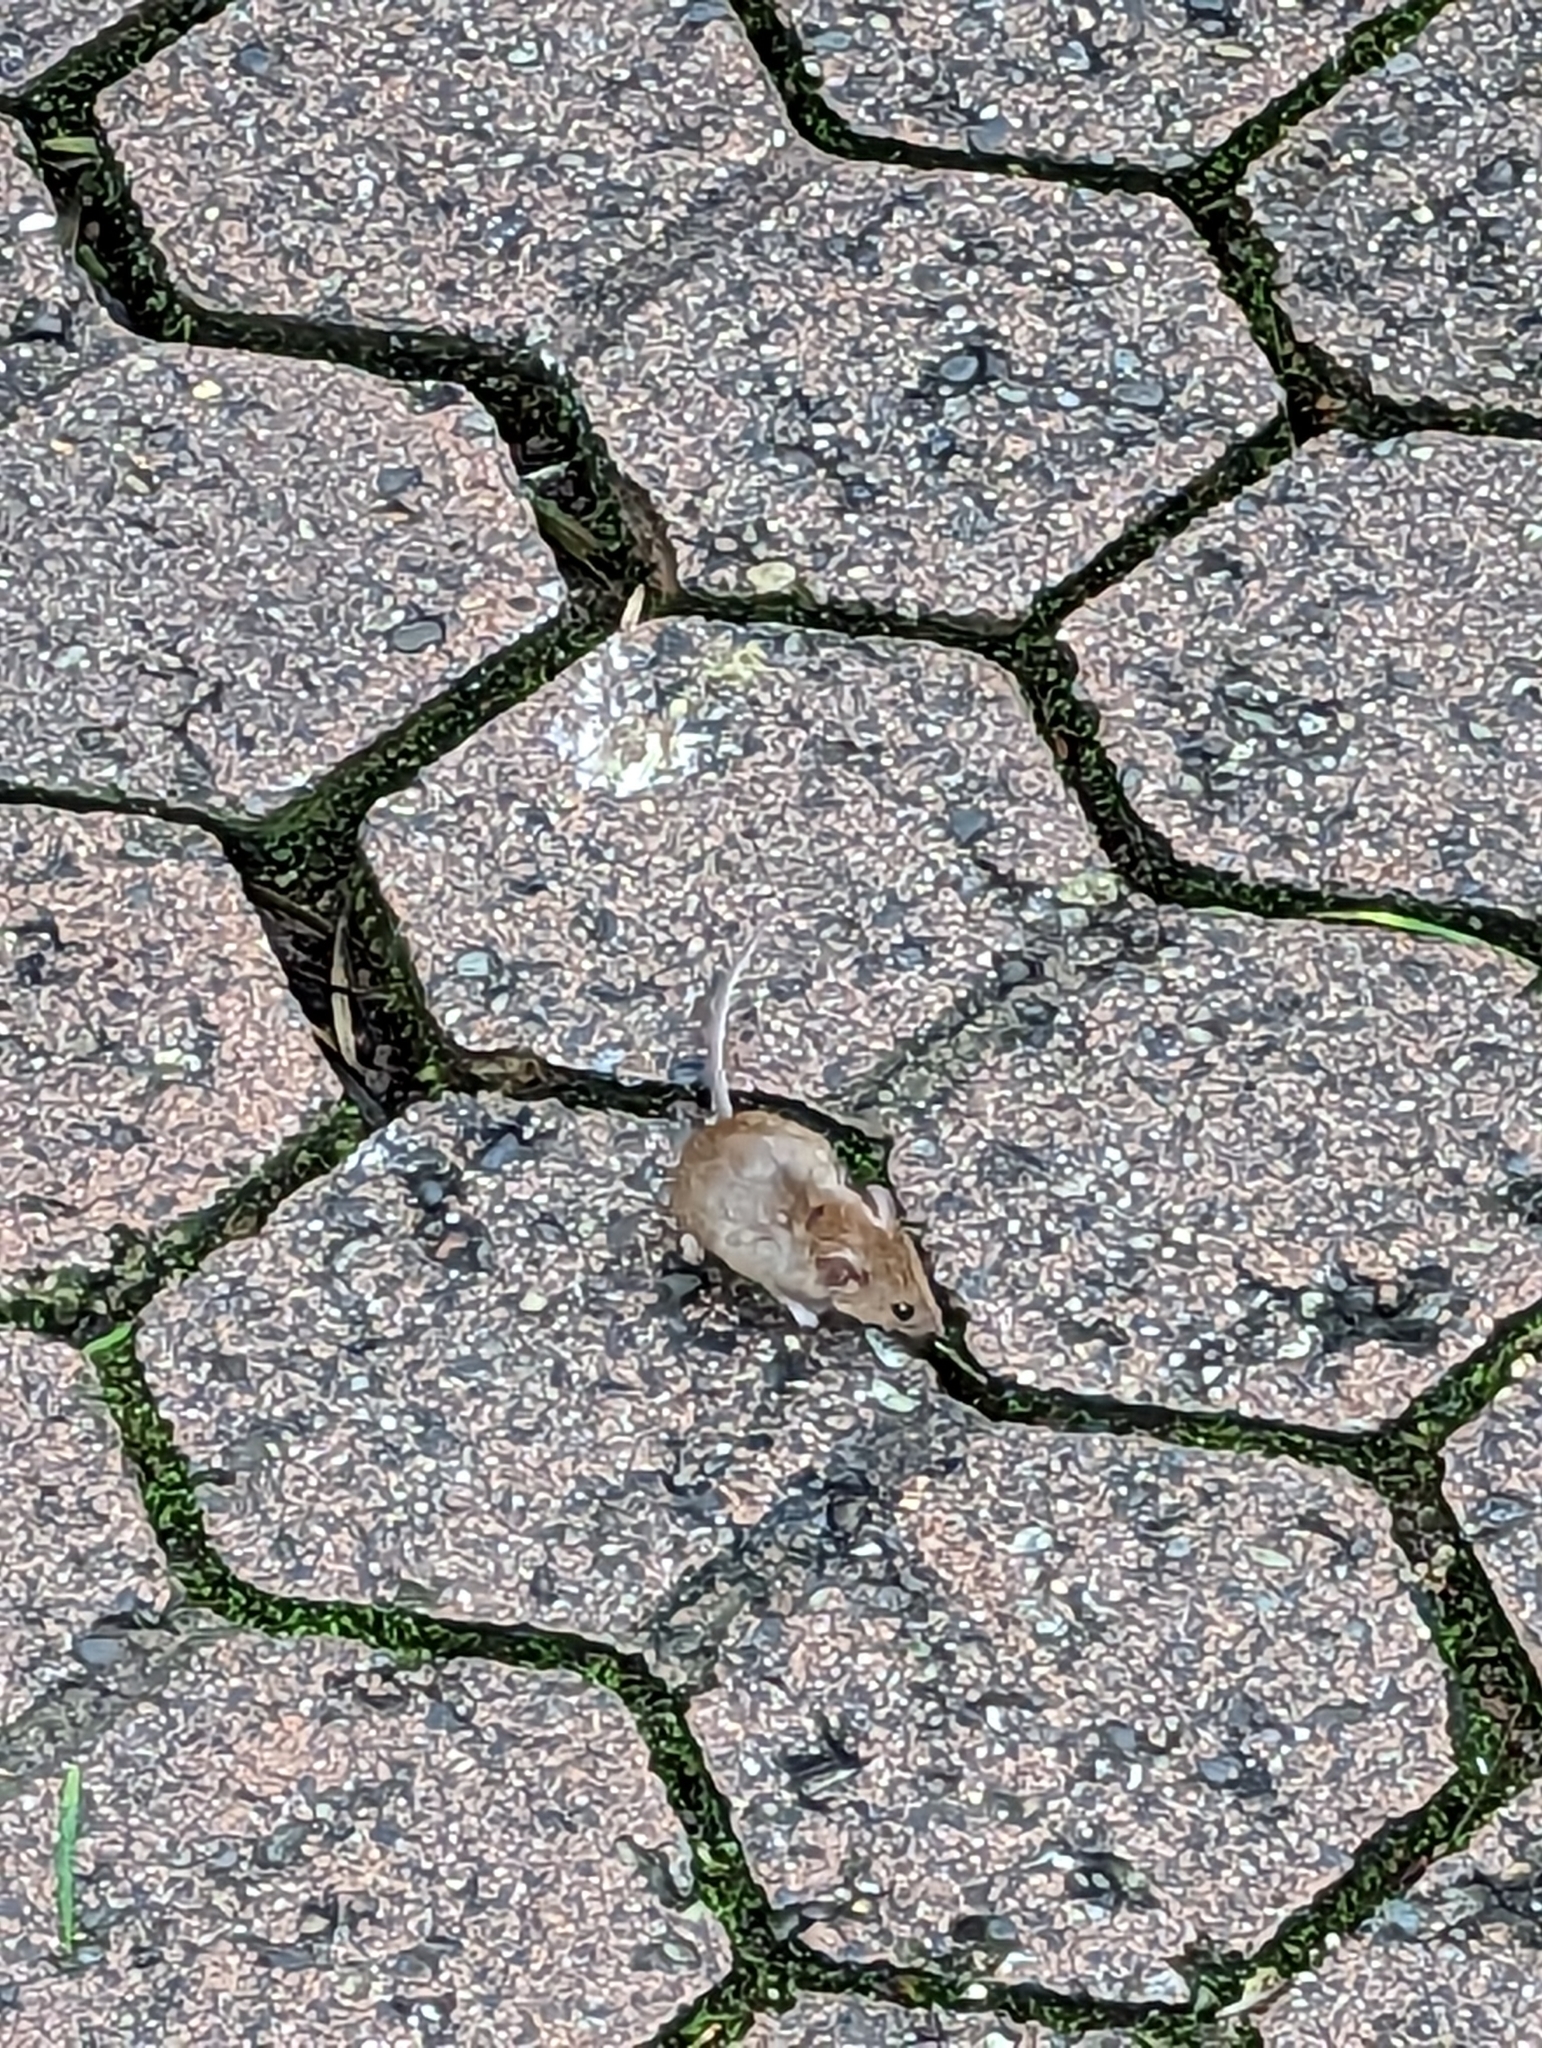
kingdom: Animalia
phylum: Chordata
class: Mammalia
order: Rodentia
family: Muridae
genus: Mus
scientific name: Mus musculus
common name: House mouse
